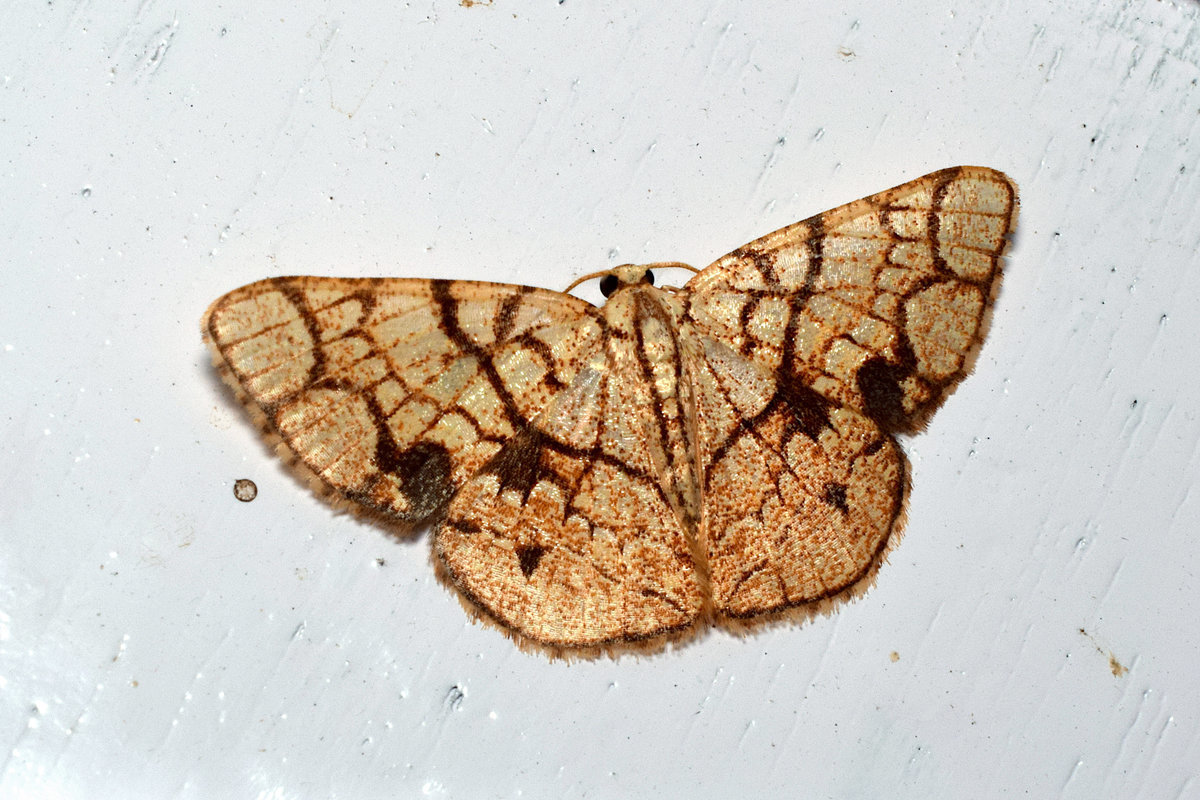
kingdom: Animalia
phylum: Arthropoda
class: Insecta
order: Lepidoptera
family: Geometridae
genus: Heterostegane
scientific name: Heterostegane subtessellata
